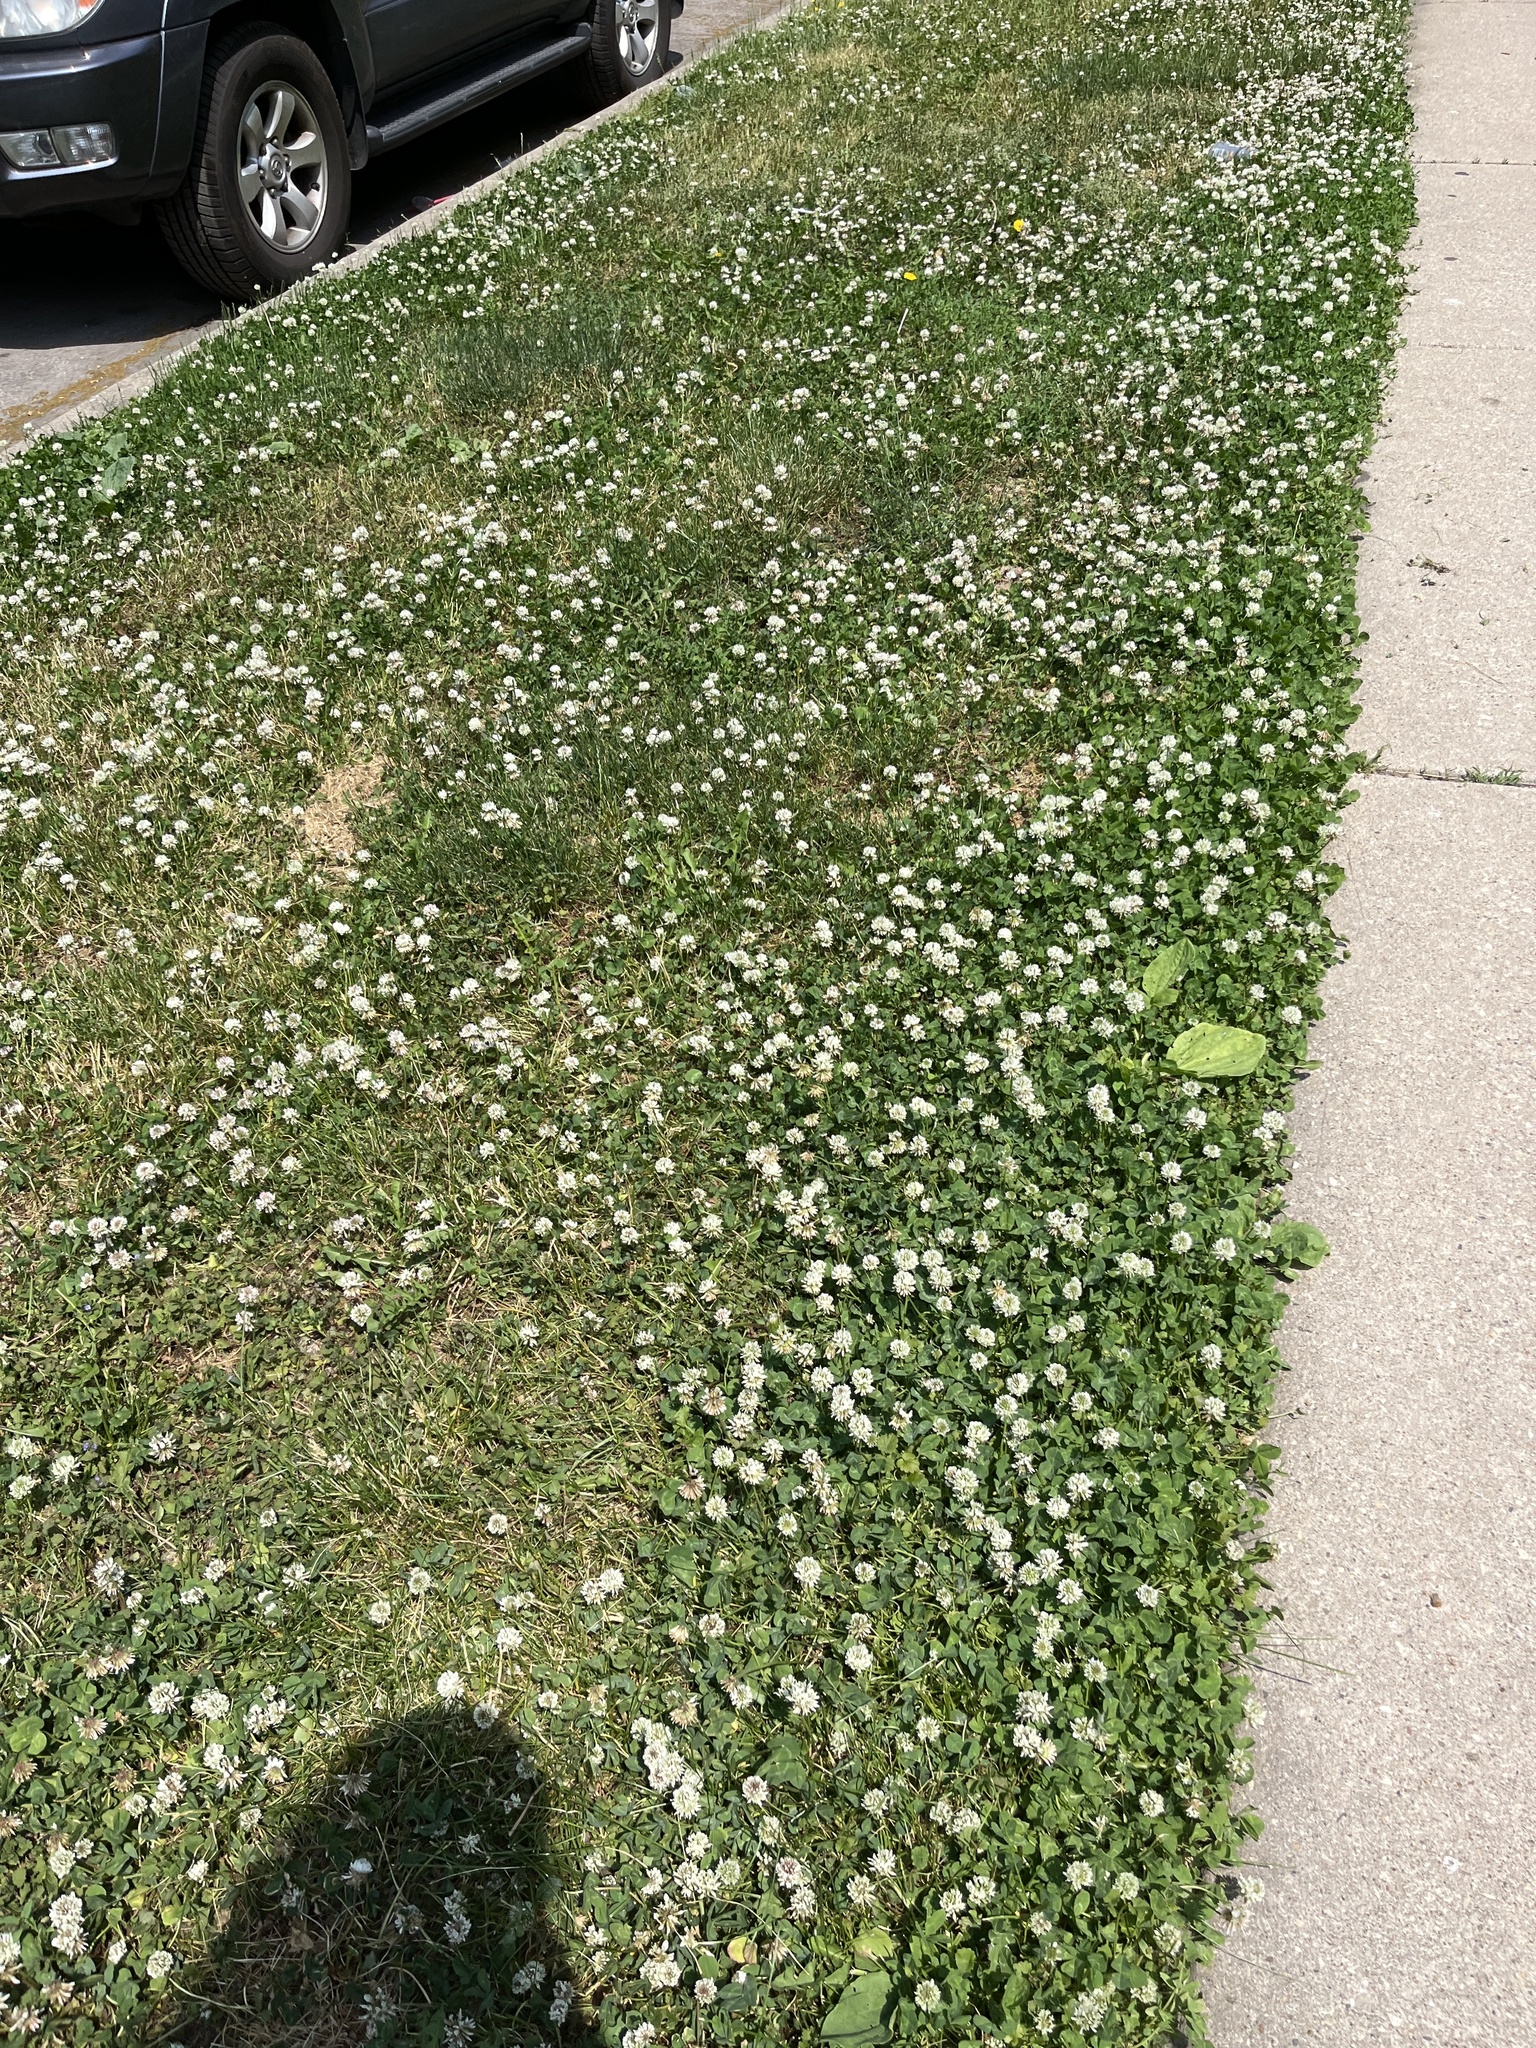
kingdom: Plantae
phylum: Tracheophyta
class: Magnoliopsida
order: Fabales
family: Fabaceae
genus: Trifolium
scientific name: Trifolium repens
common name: White clover
